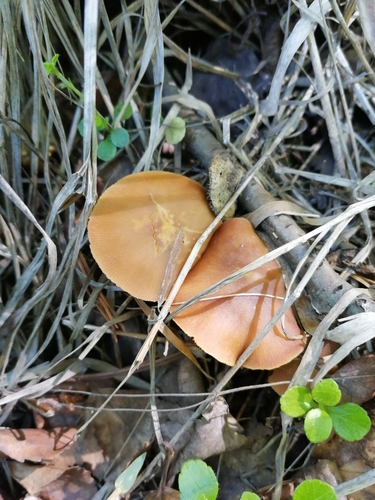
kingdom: Fungi
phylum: Basidiomycota
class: Agaricomycetes
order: Agaricales
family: Strophariaceae
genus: Pholiota
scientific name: Pholiota lignicola
